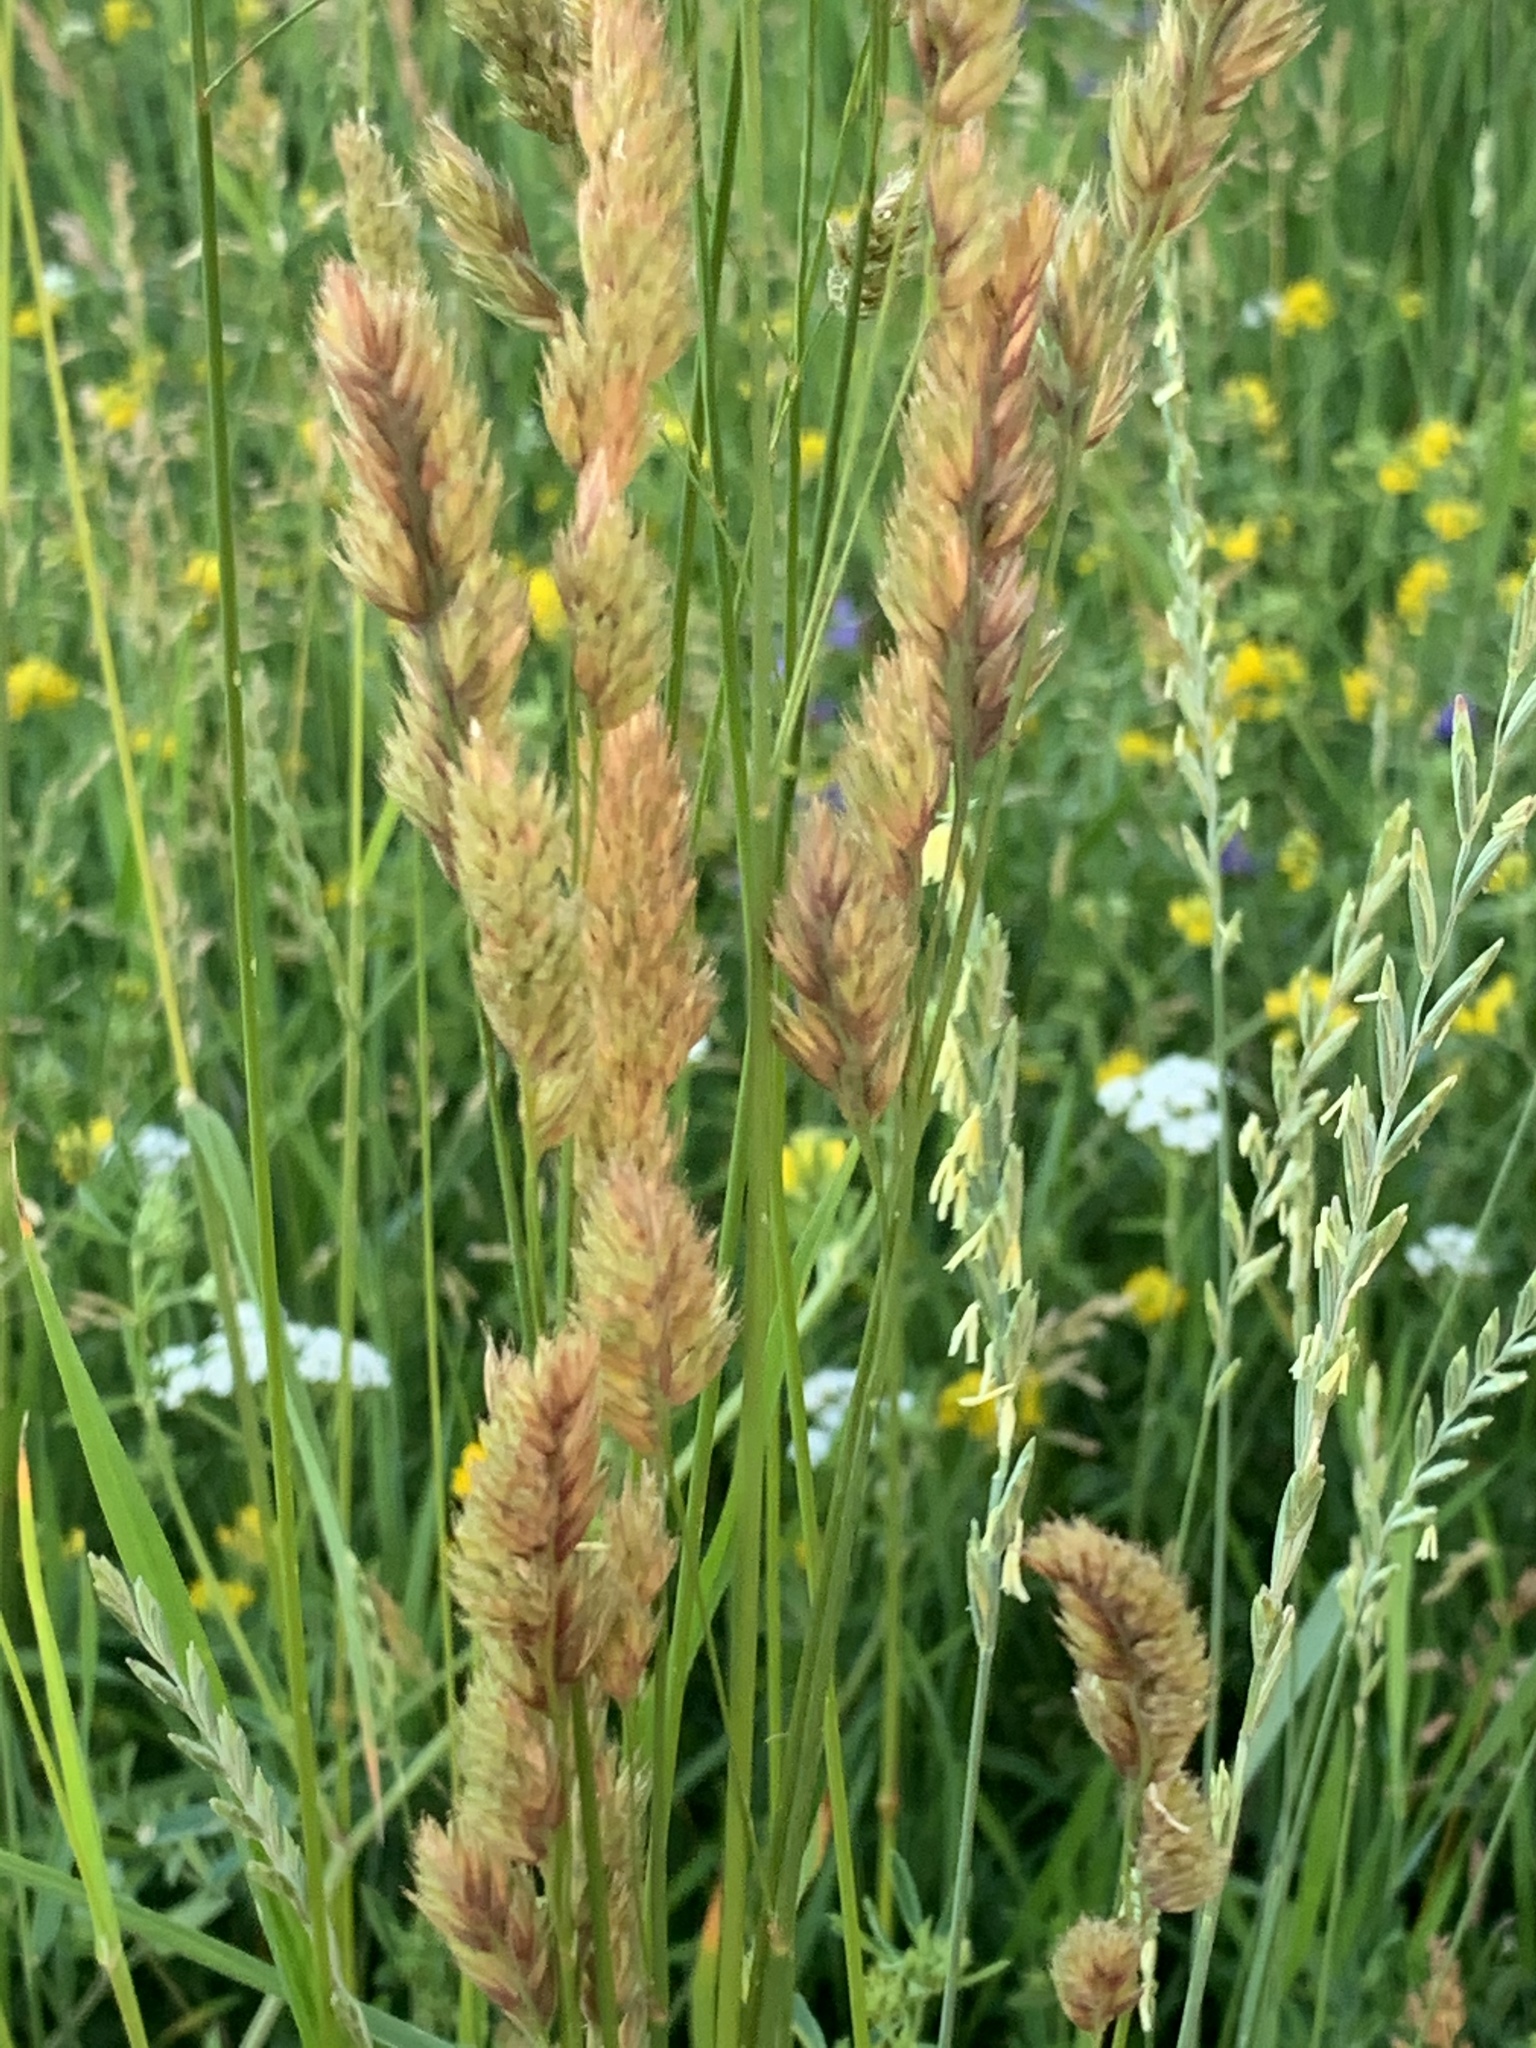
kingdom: Plantae
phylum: Tracheophyta
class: Liliopsida
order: Poales
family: Poaceae
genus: Dactylis
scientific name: Dactylis glomerata
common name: Orchardgrass
